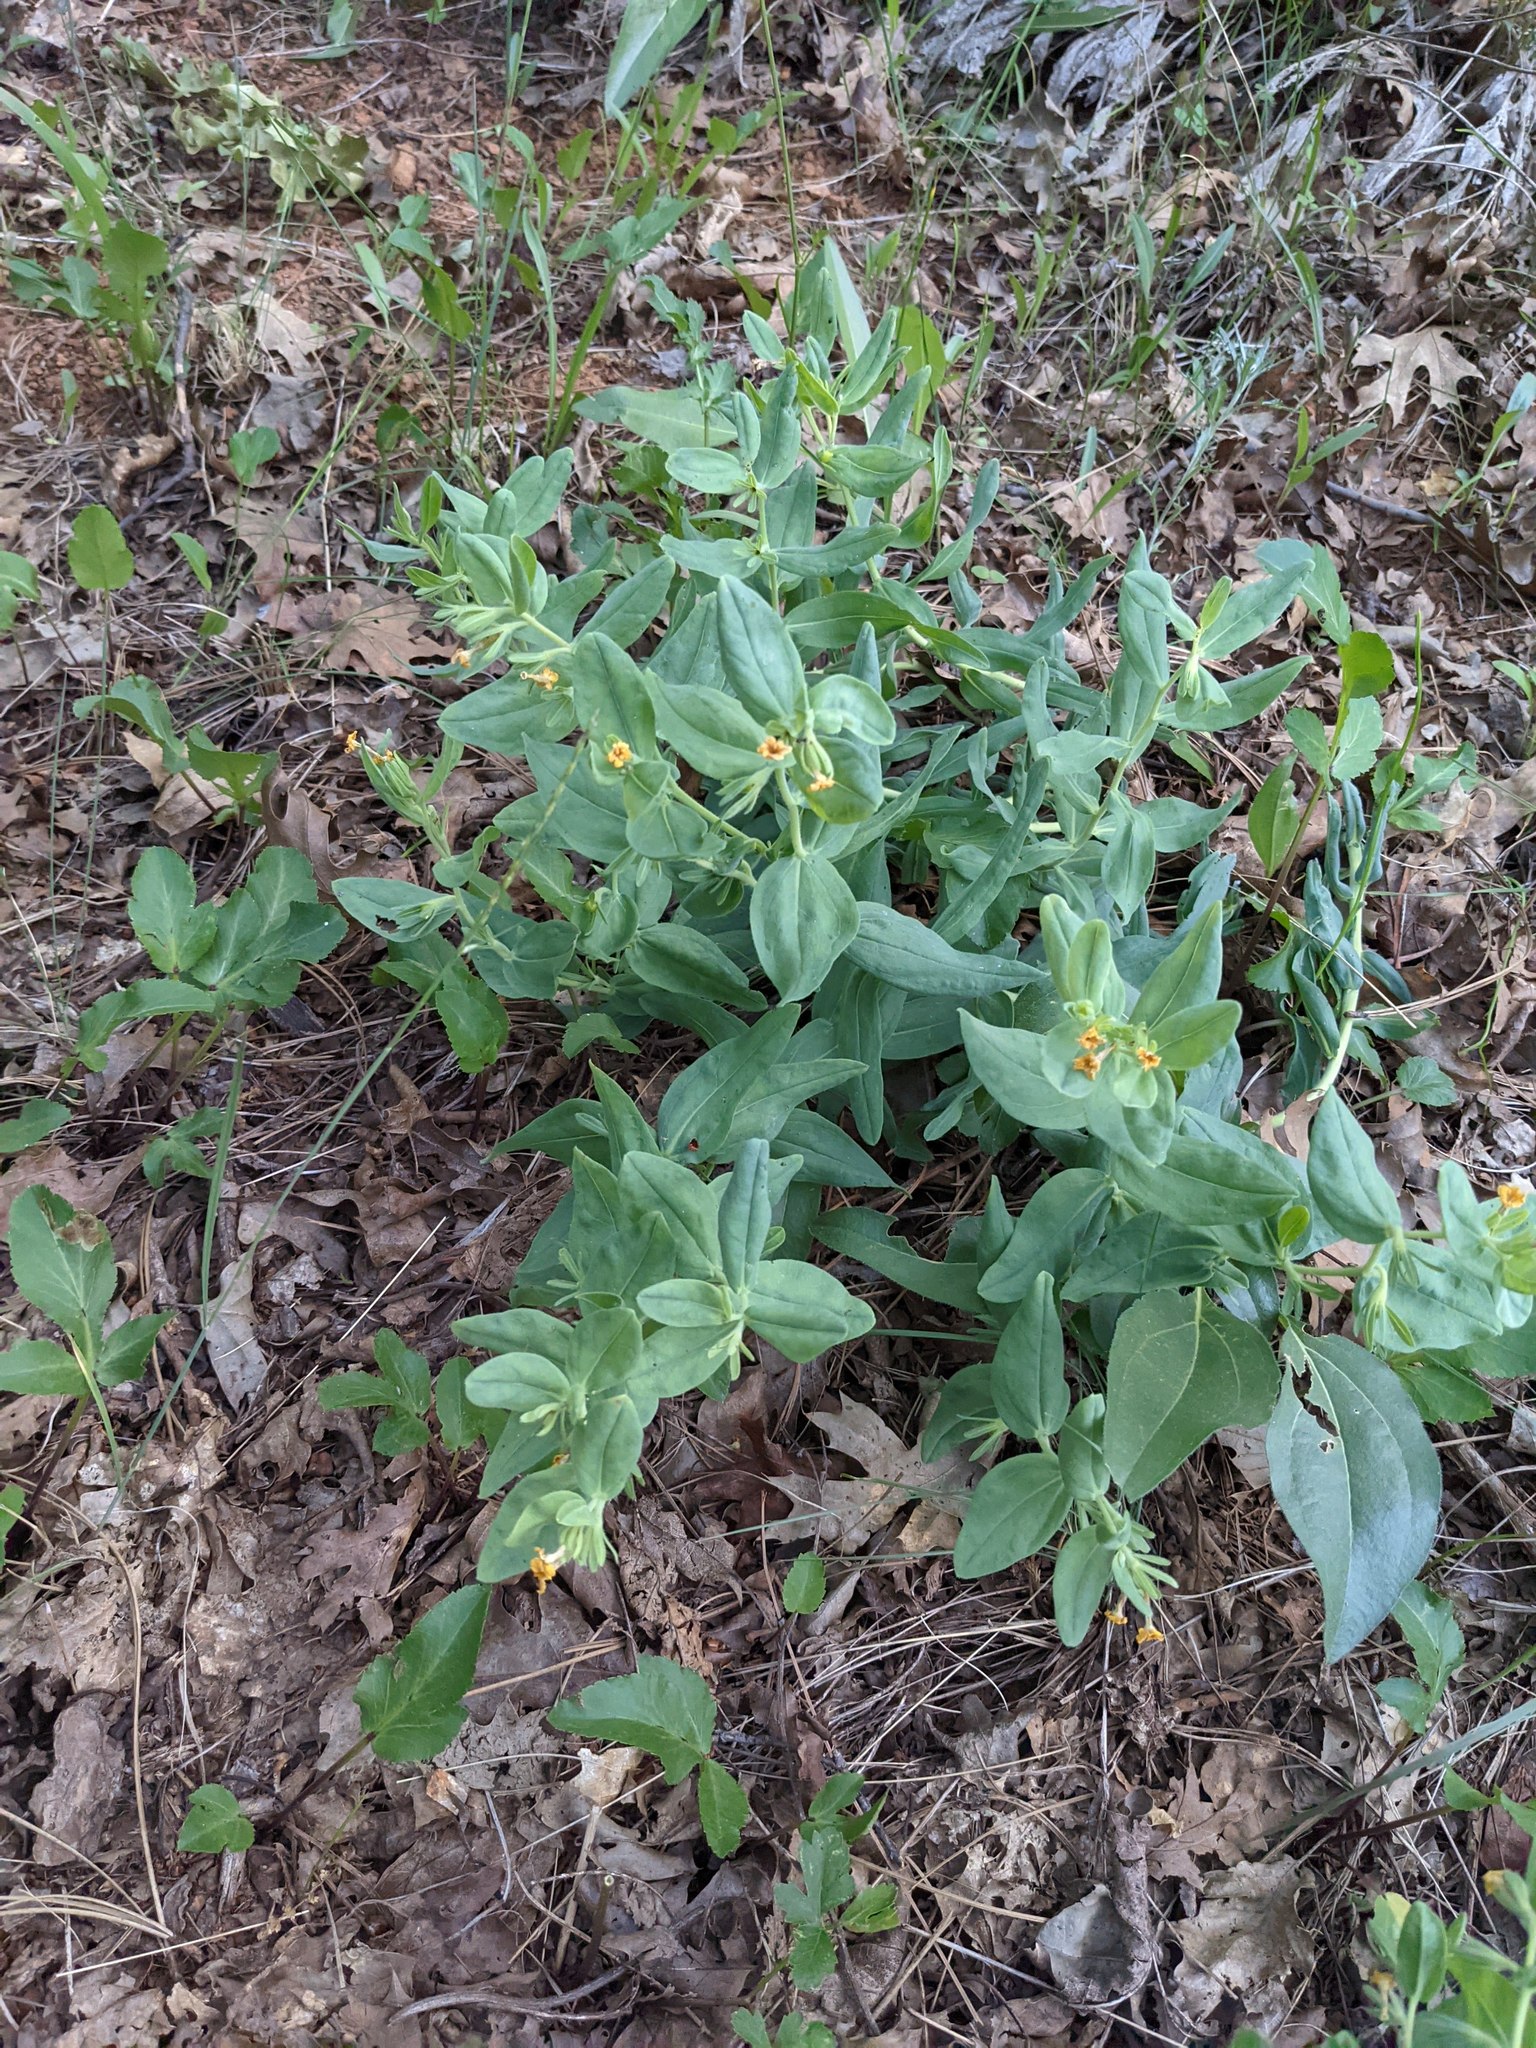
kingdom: Plantae
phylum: Tracheophyta
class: Magnoliopsida
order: Boraginales
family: Boraginaceae
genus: Lithospermum
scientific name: Lithospermum californicum
